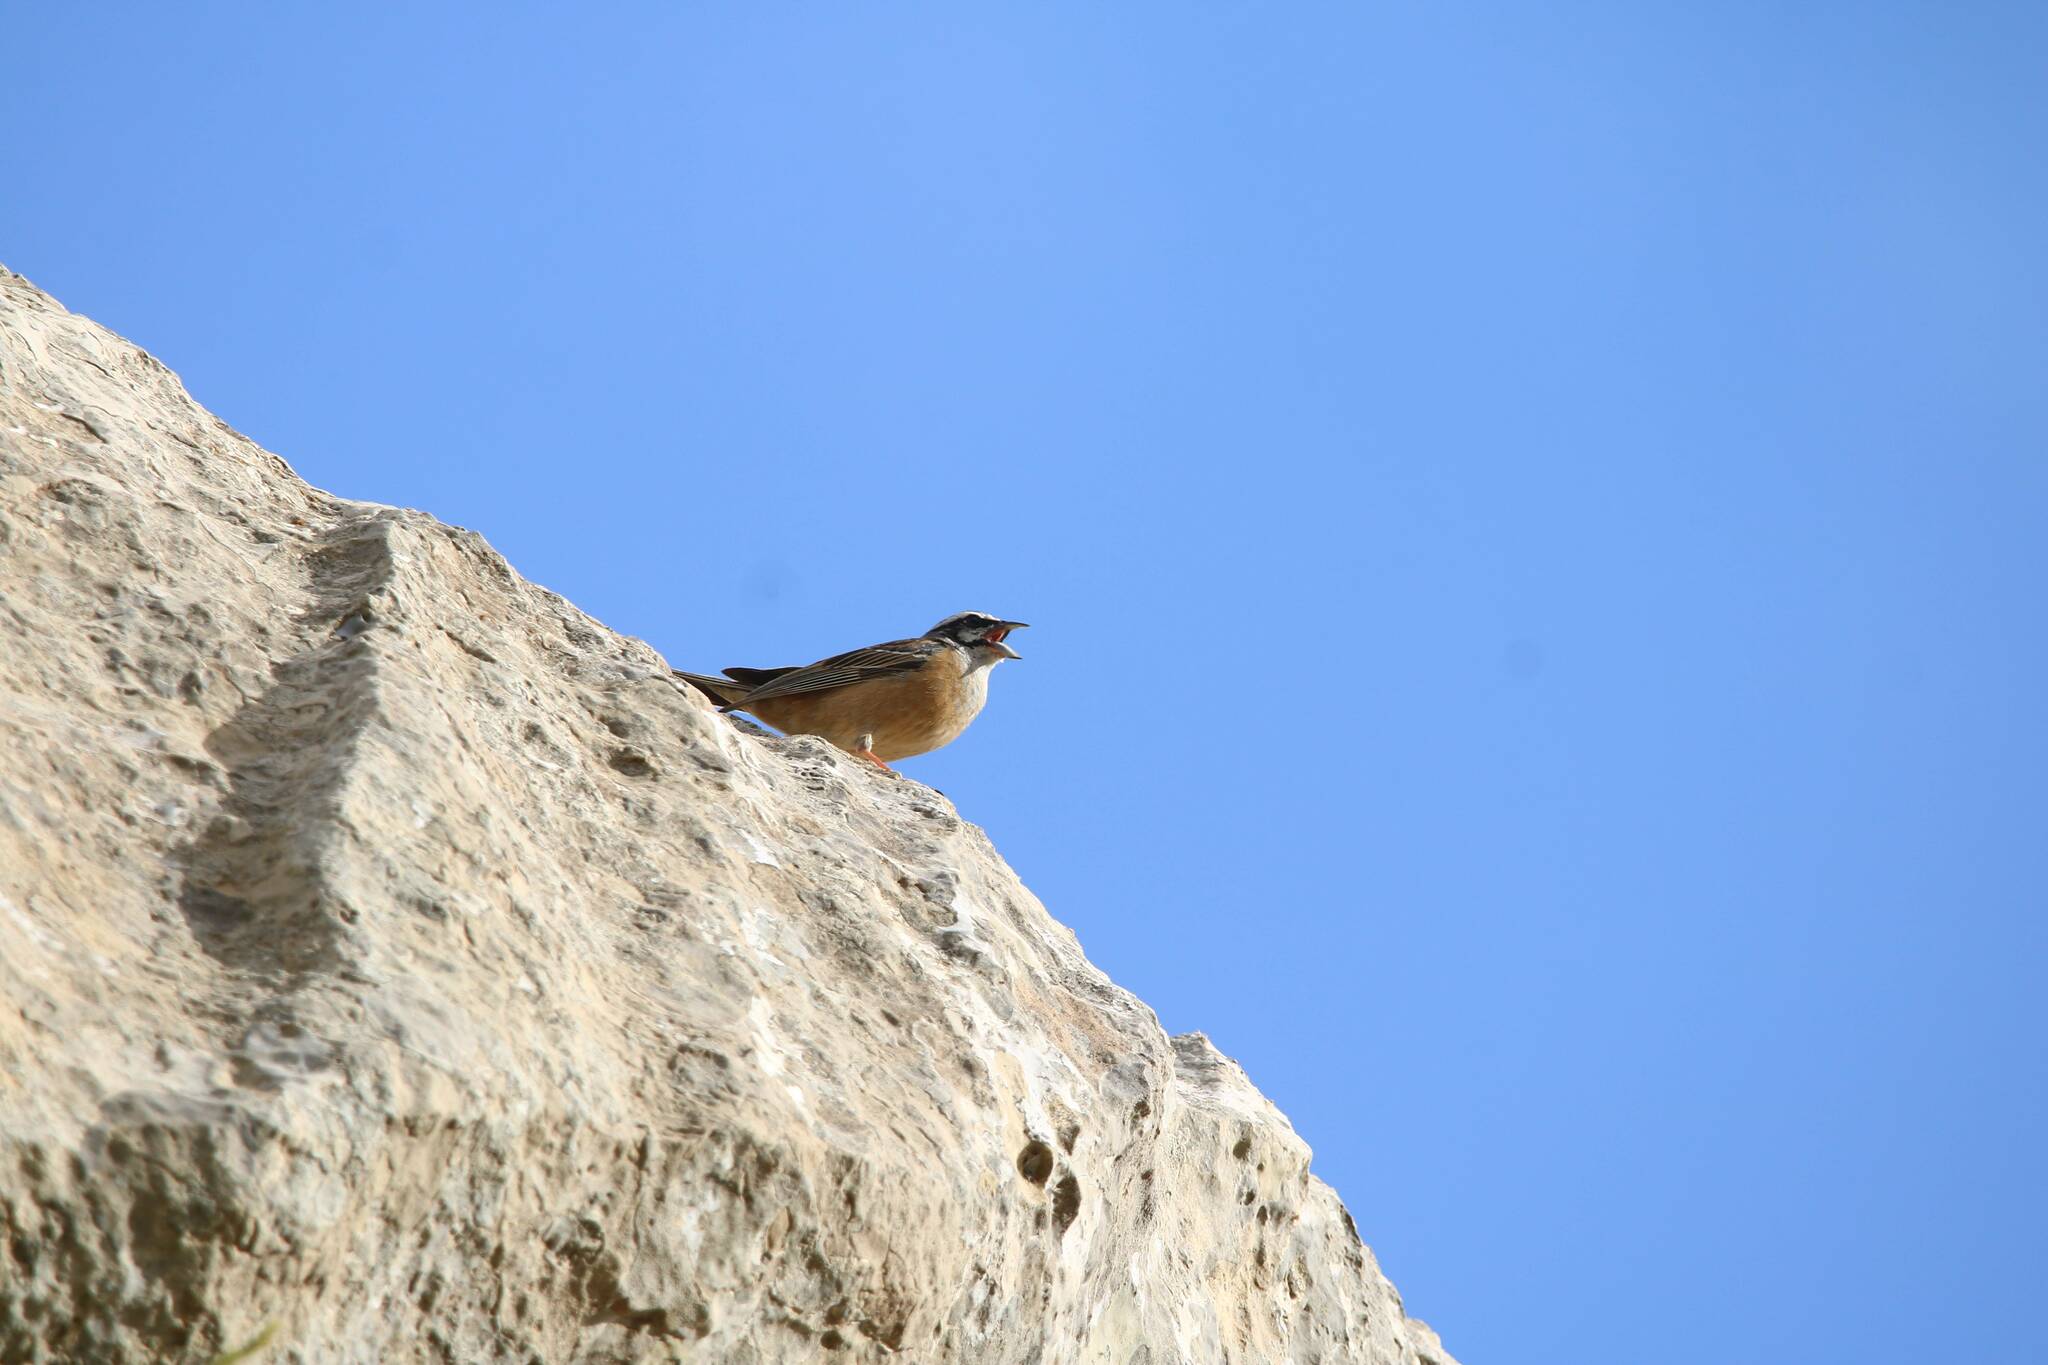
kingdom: Animalia
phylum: Chordata
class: Aves
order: Passeriformes
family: Emberizidae
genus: Emberiza
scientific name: Emberiza cia
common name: Rock bunting
